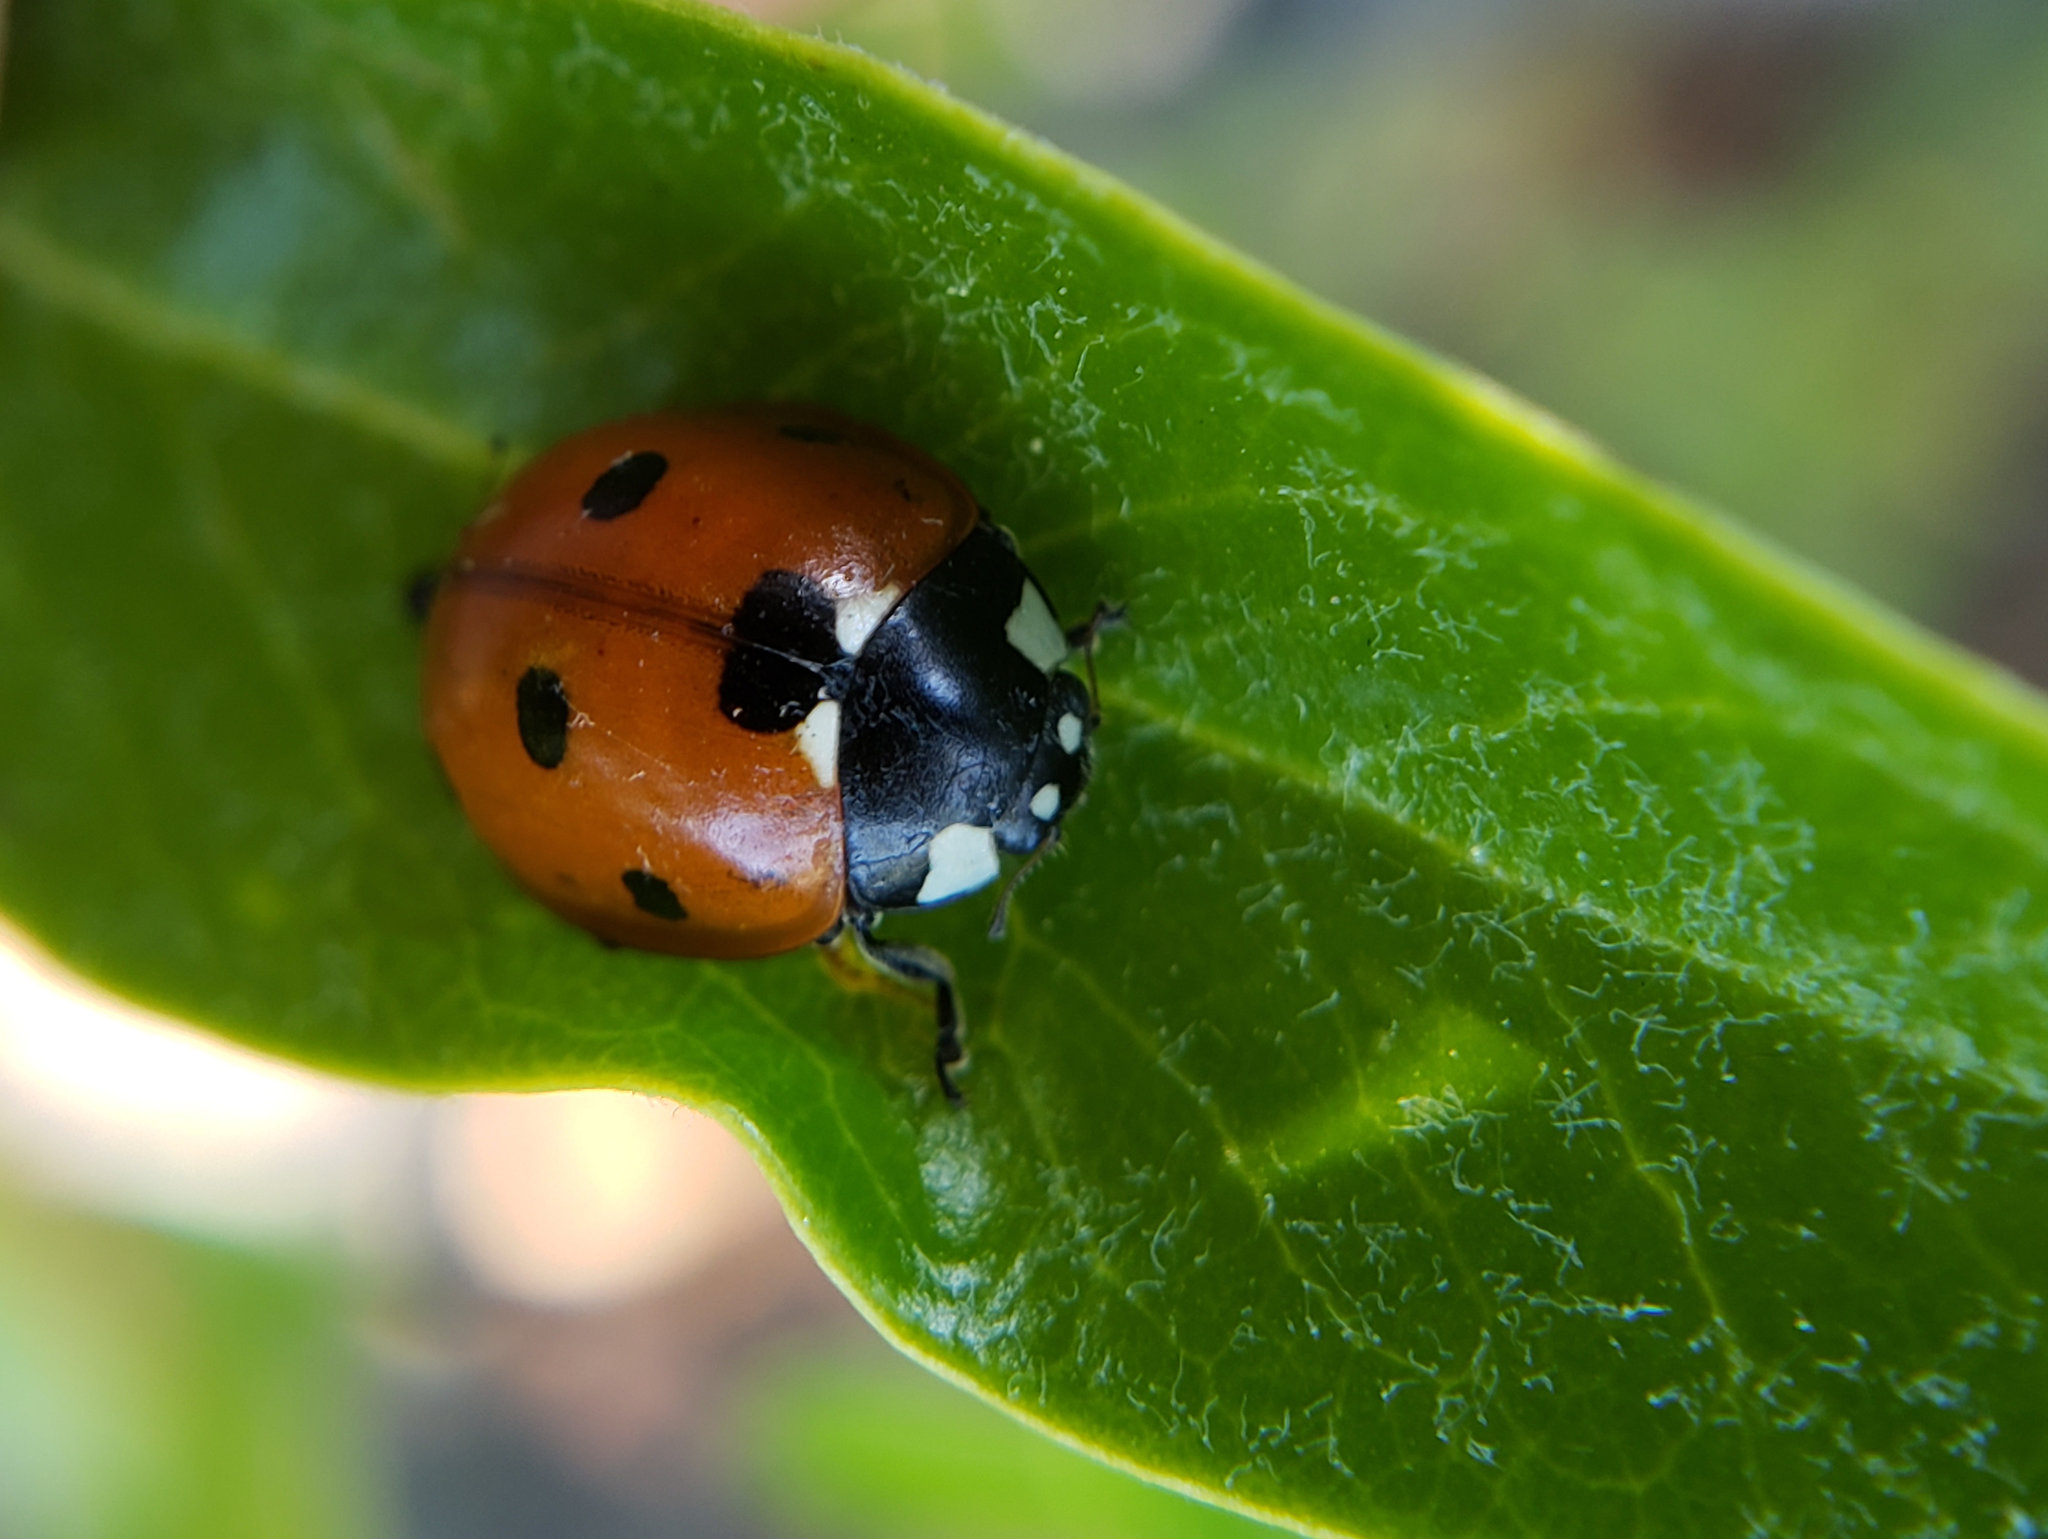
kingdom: Animalia
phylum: Arthropoda
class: Insecta
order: Coleoptera
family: Coccinellidae
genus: Coccinella
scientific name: Coccinella septempunctata
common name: Sevenspotted lady beetle
